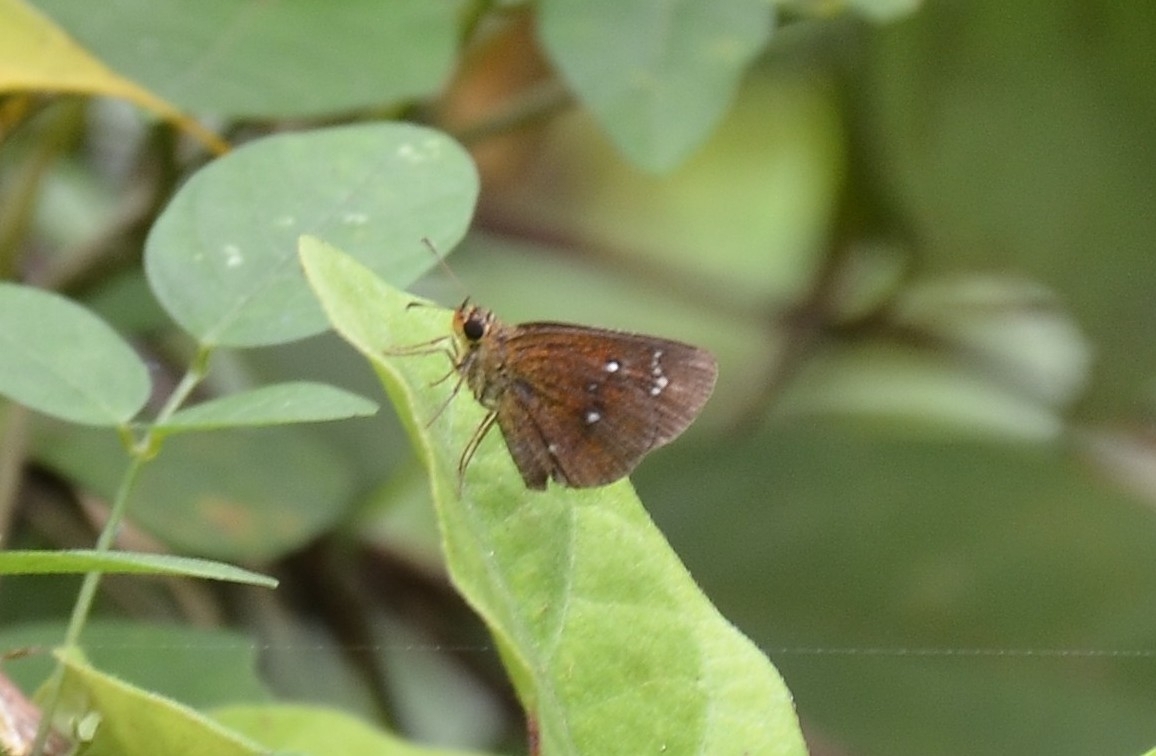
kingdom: Animalia
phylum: Arthropoda
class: Insecta
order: Lepidoptera
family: Hesperiidae
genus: Iambrix
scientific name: Iambrix salsala
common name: Chestnut bob
